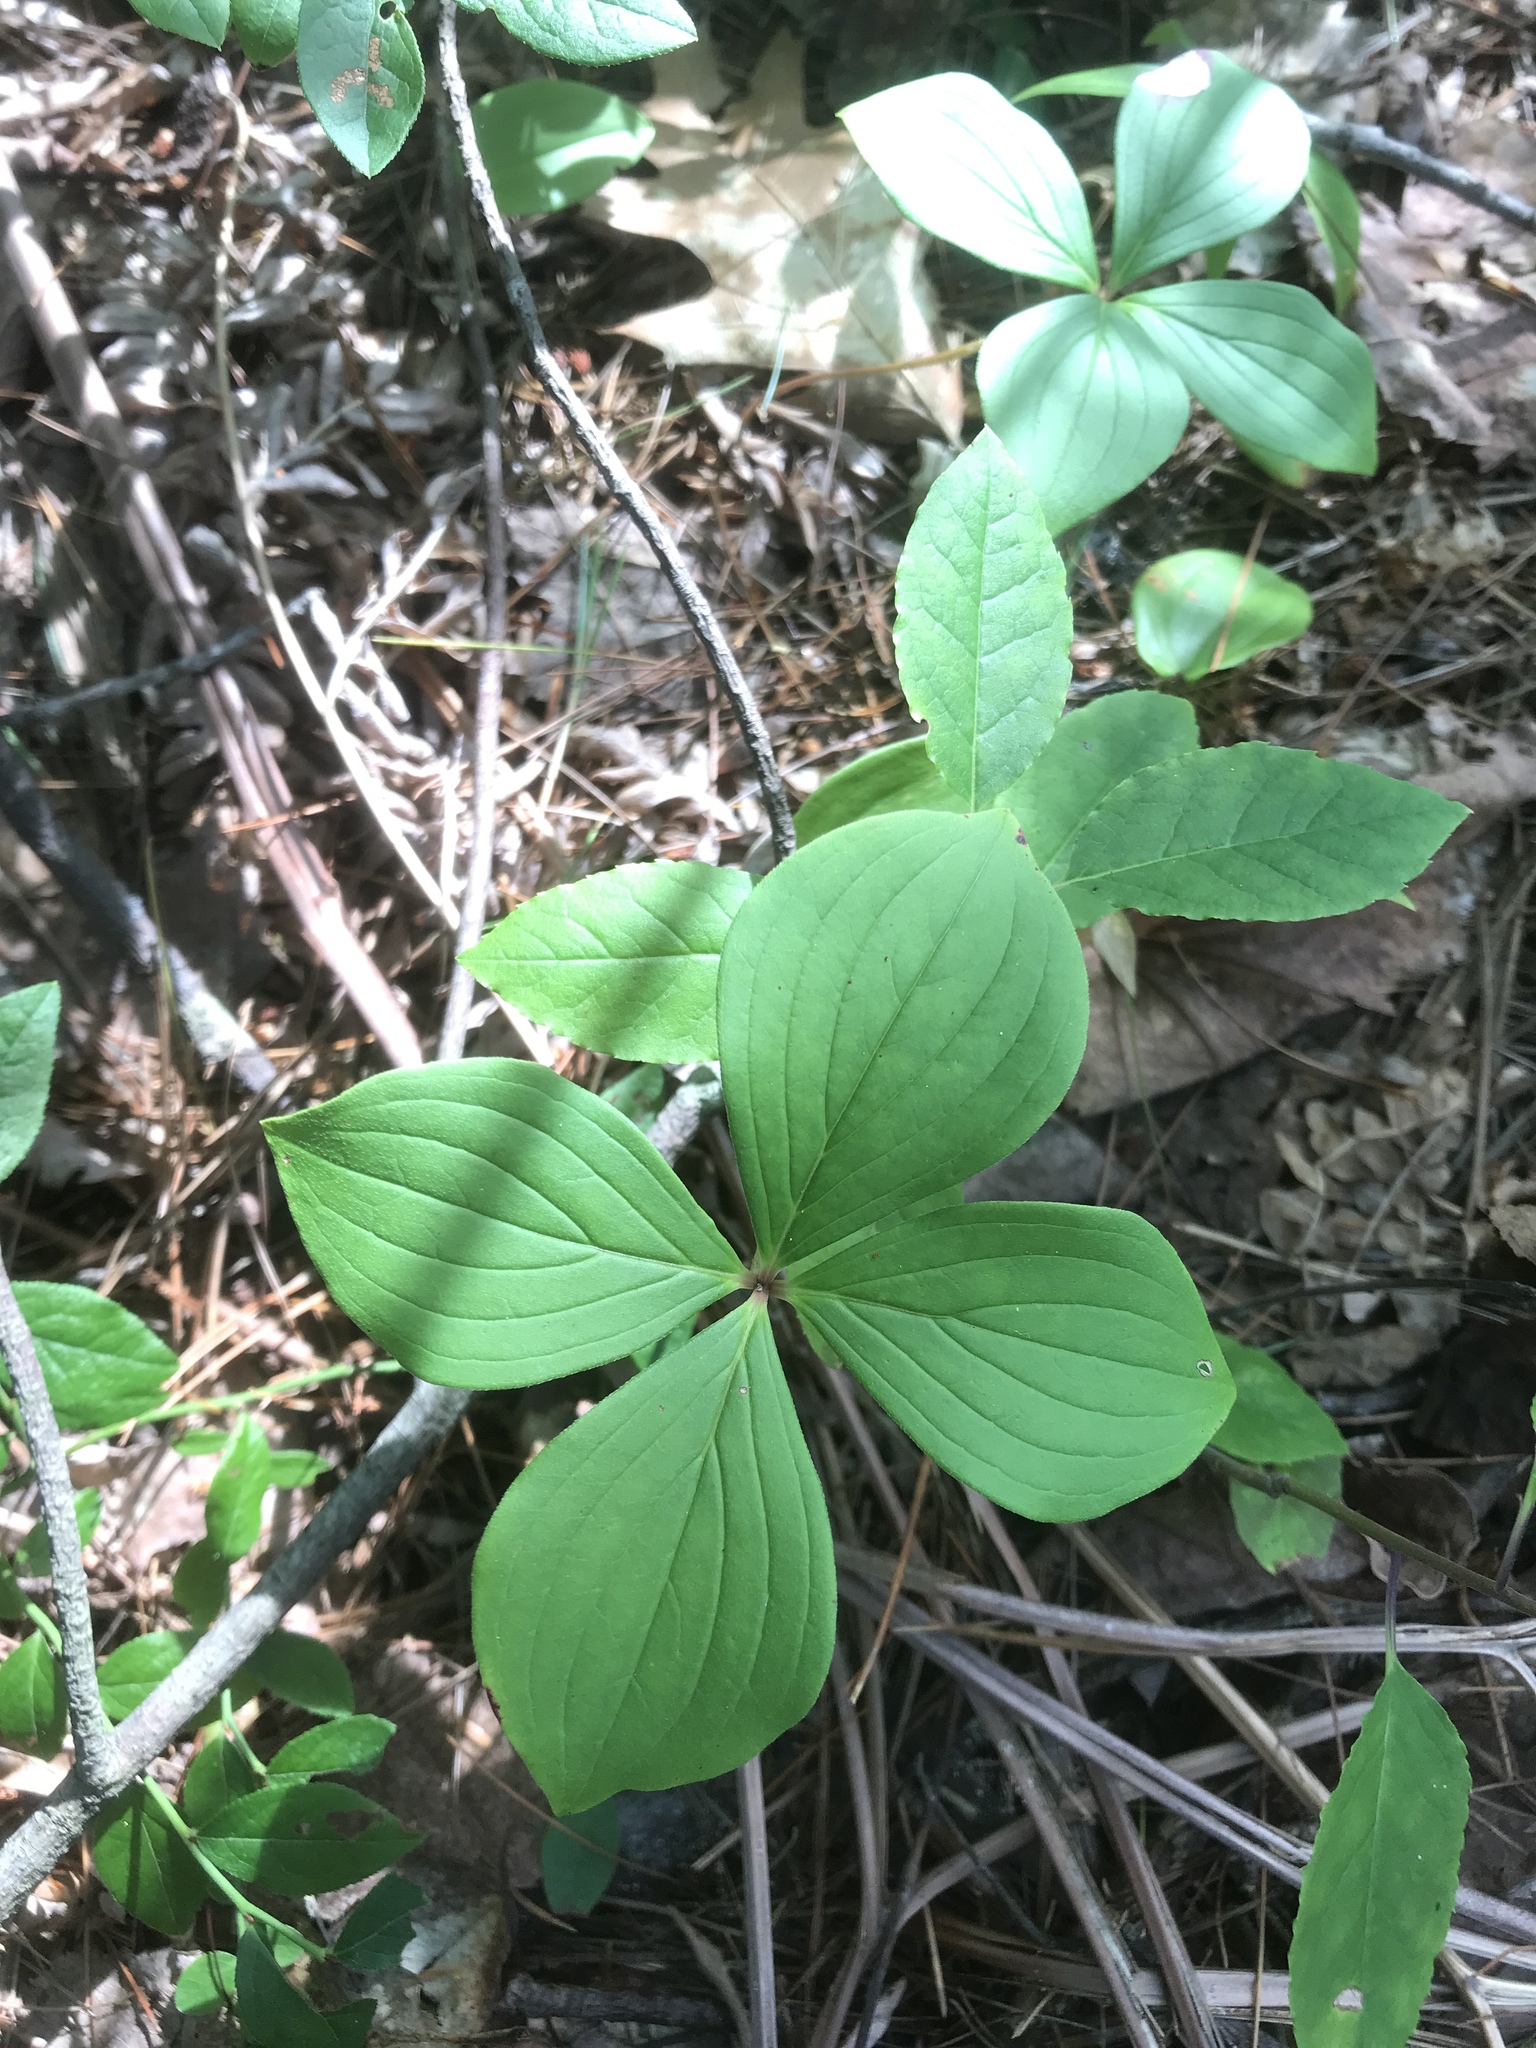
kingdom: Plantae
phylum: Tracheophyta
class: Magnoliopsida
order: Cornales
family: Cornaceae
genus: Cornus
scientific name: Cornus canadensis
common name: Creeping dogwood
